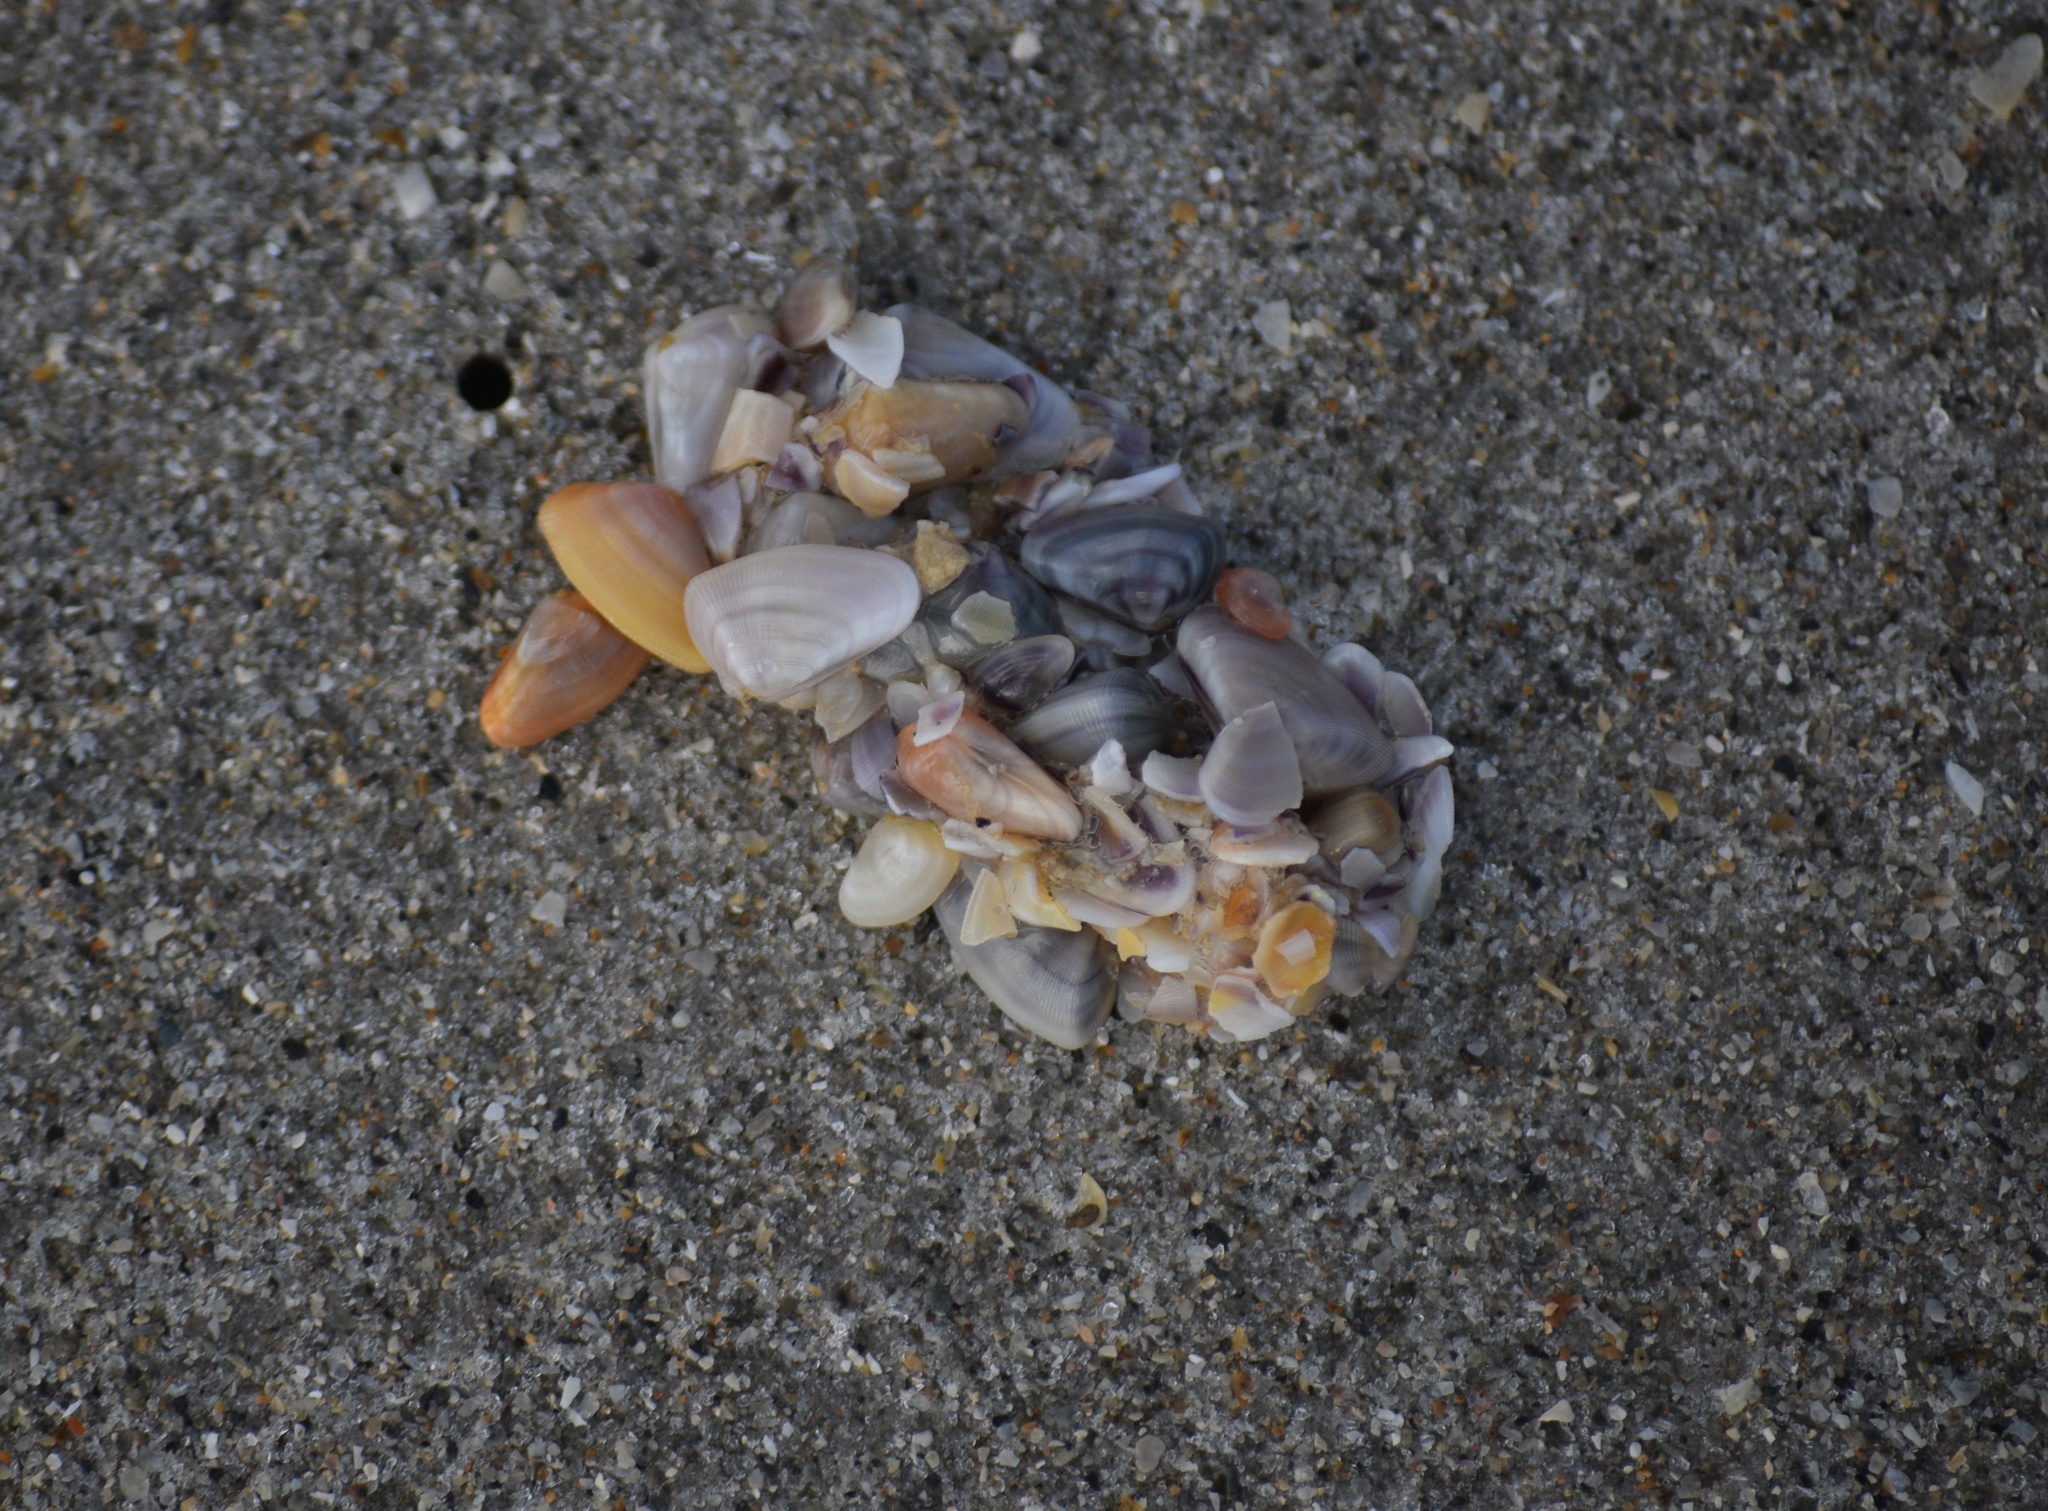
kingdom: Animalia
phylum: Mollusca
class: Bivalvia
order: Cardiida
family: Donacidae
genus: Donax
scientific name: Donax variabilis
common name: Butterfly shell
